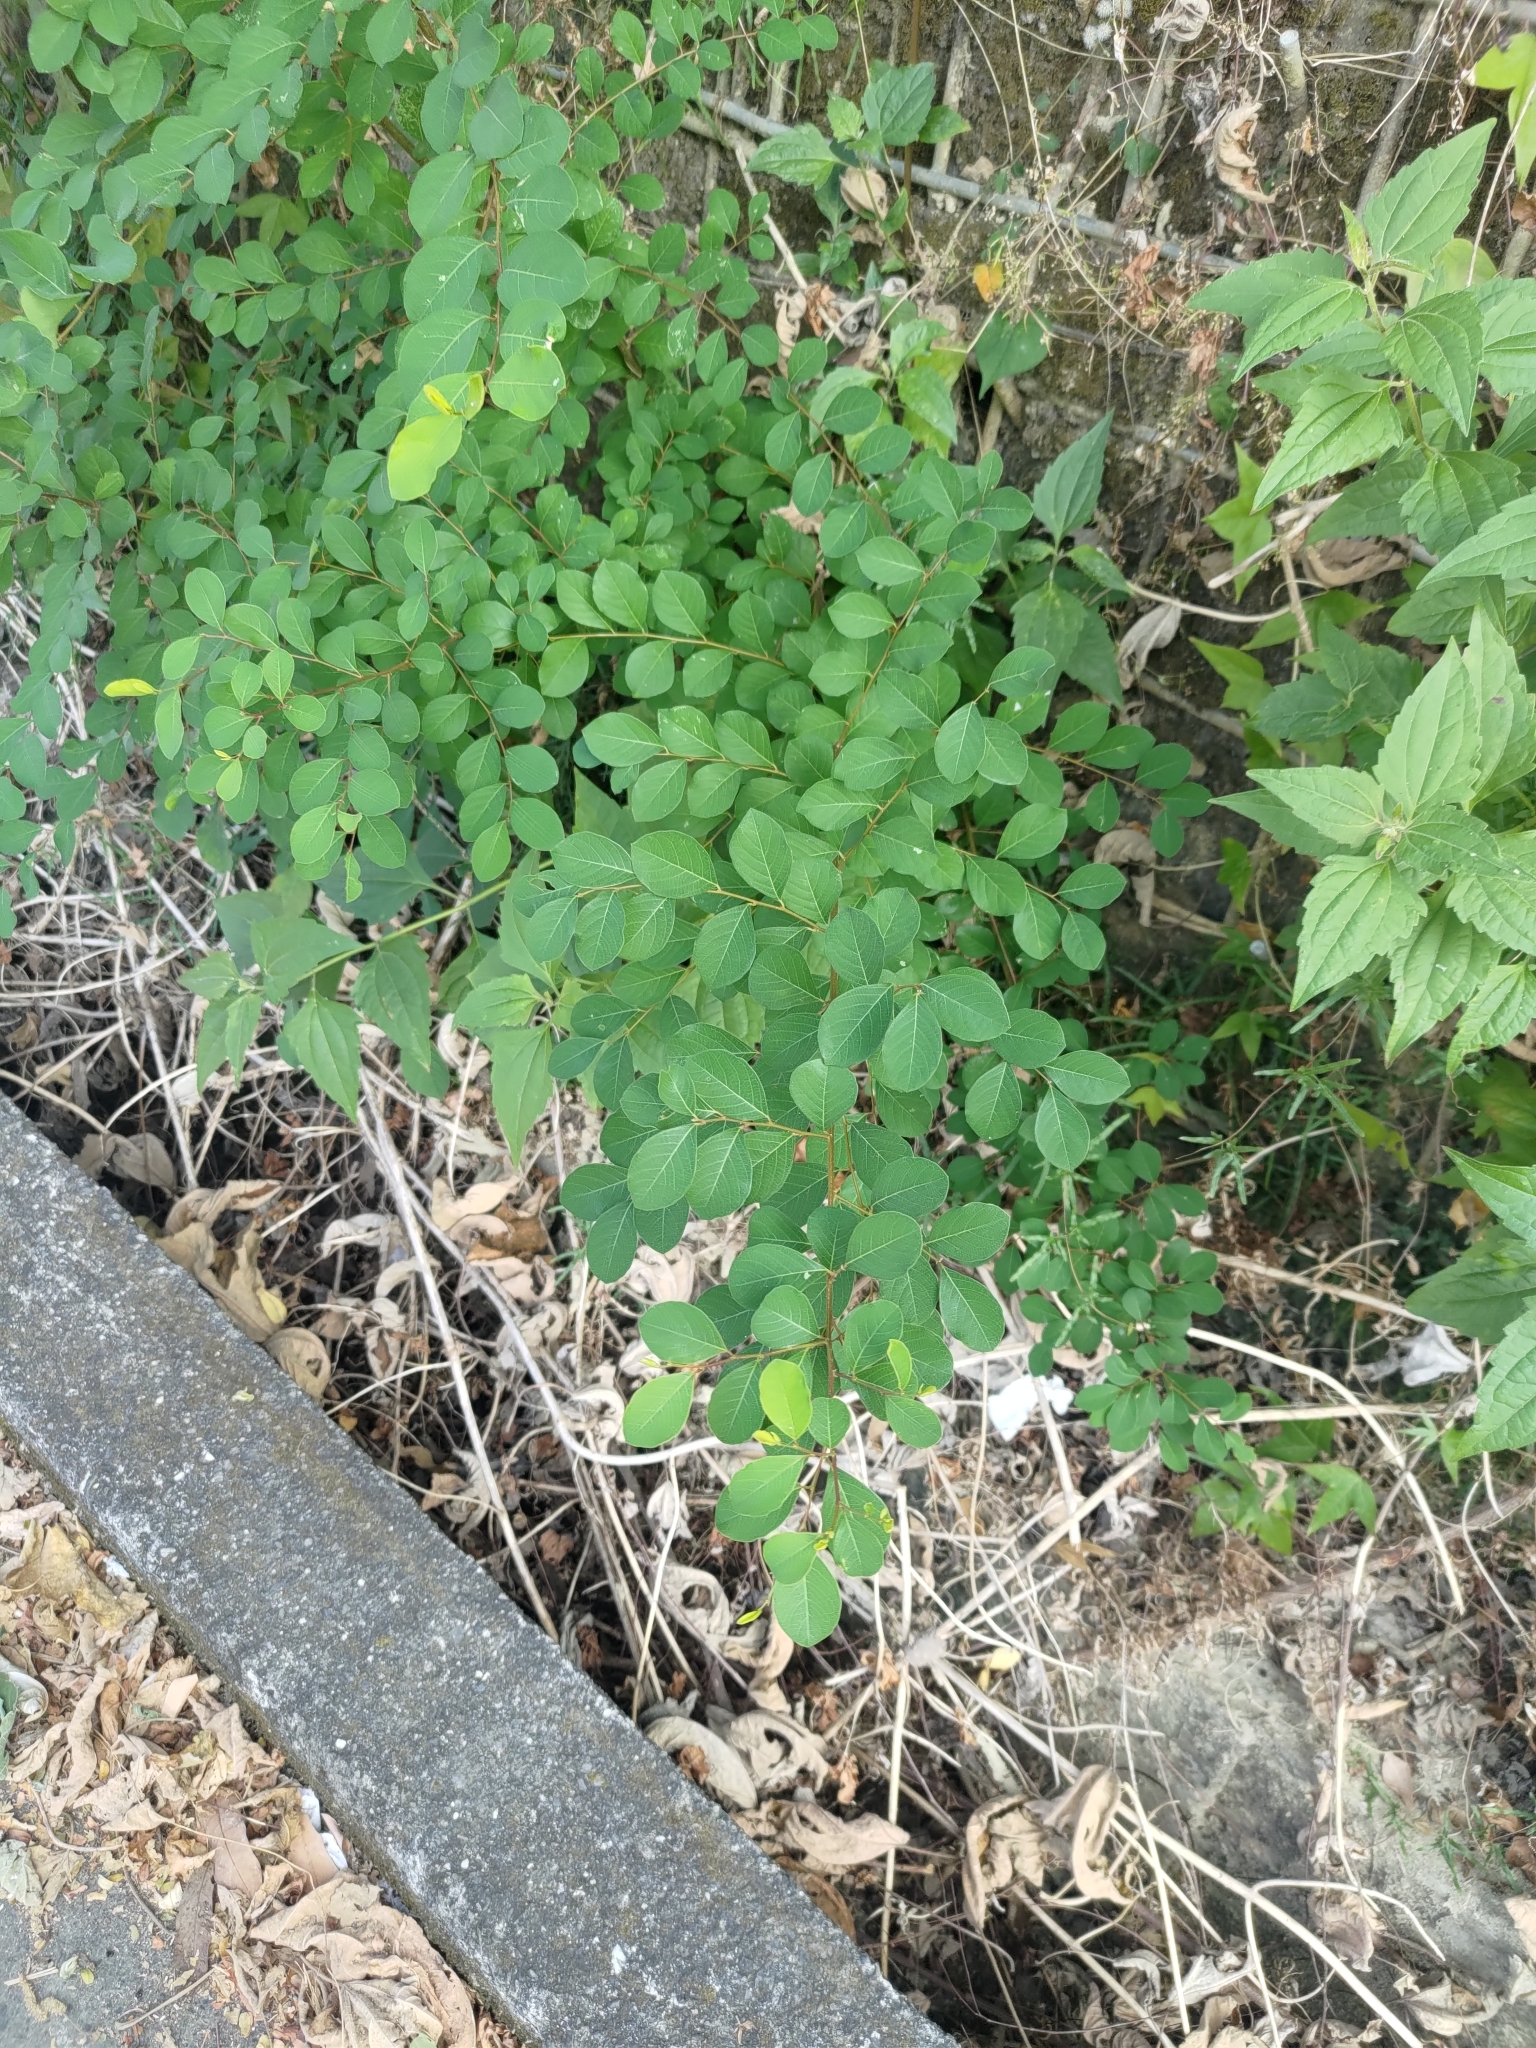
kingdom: Plantae
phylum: Tracheophyta
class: Magnoliopsida
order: Malpighiales
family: Phyllanthaceae
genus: Flueggea
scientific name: Flueggea virosa
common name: Common bushweed
